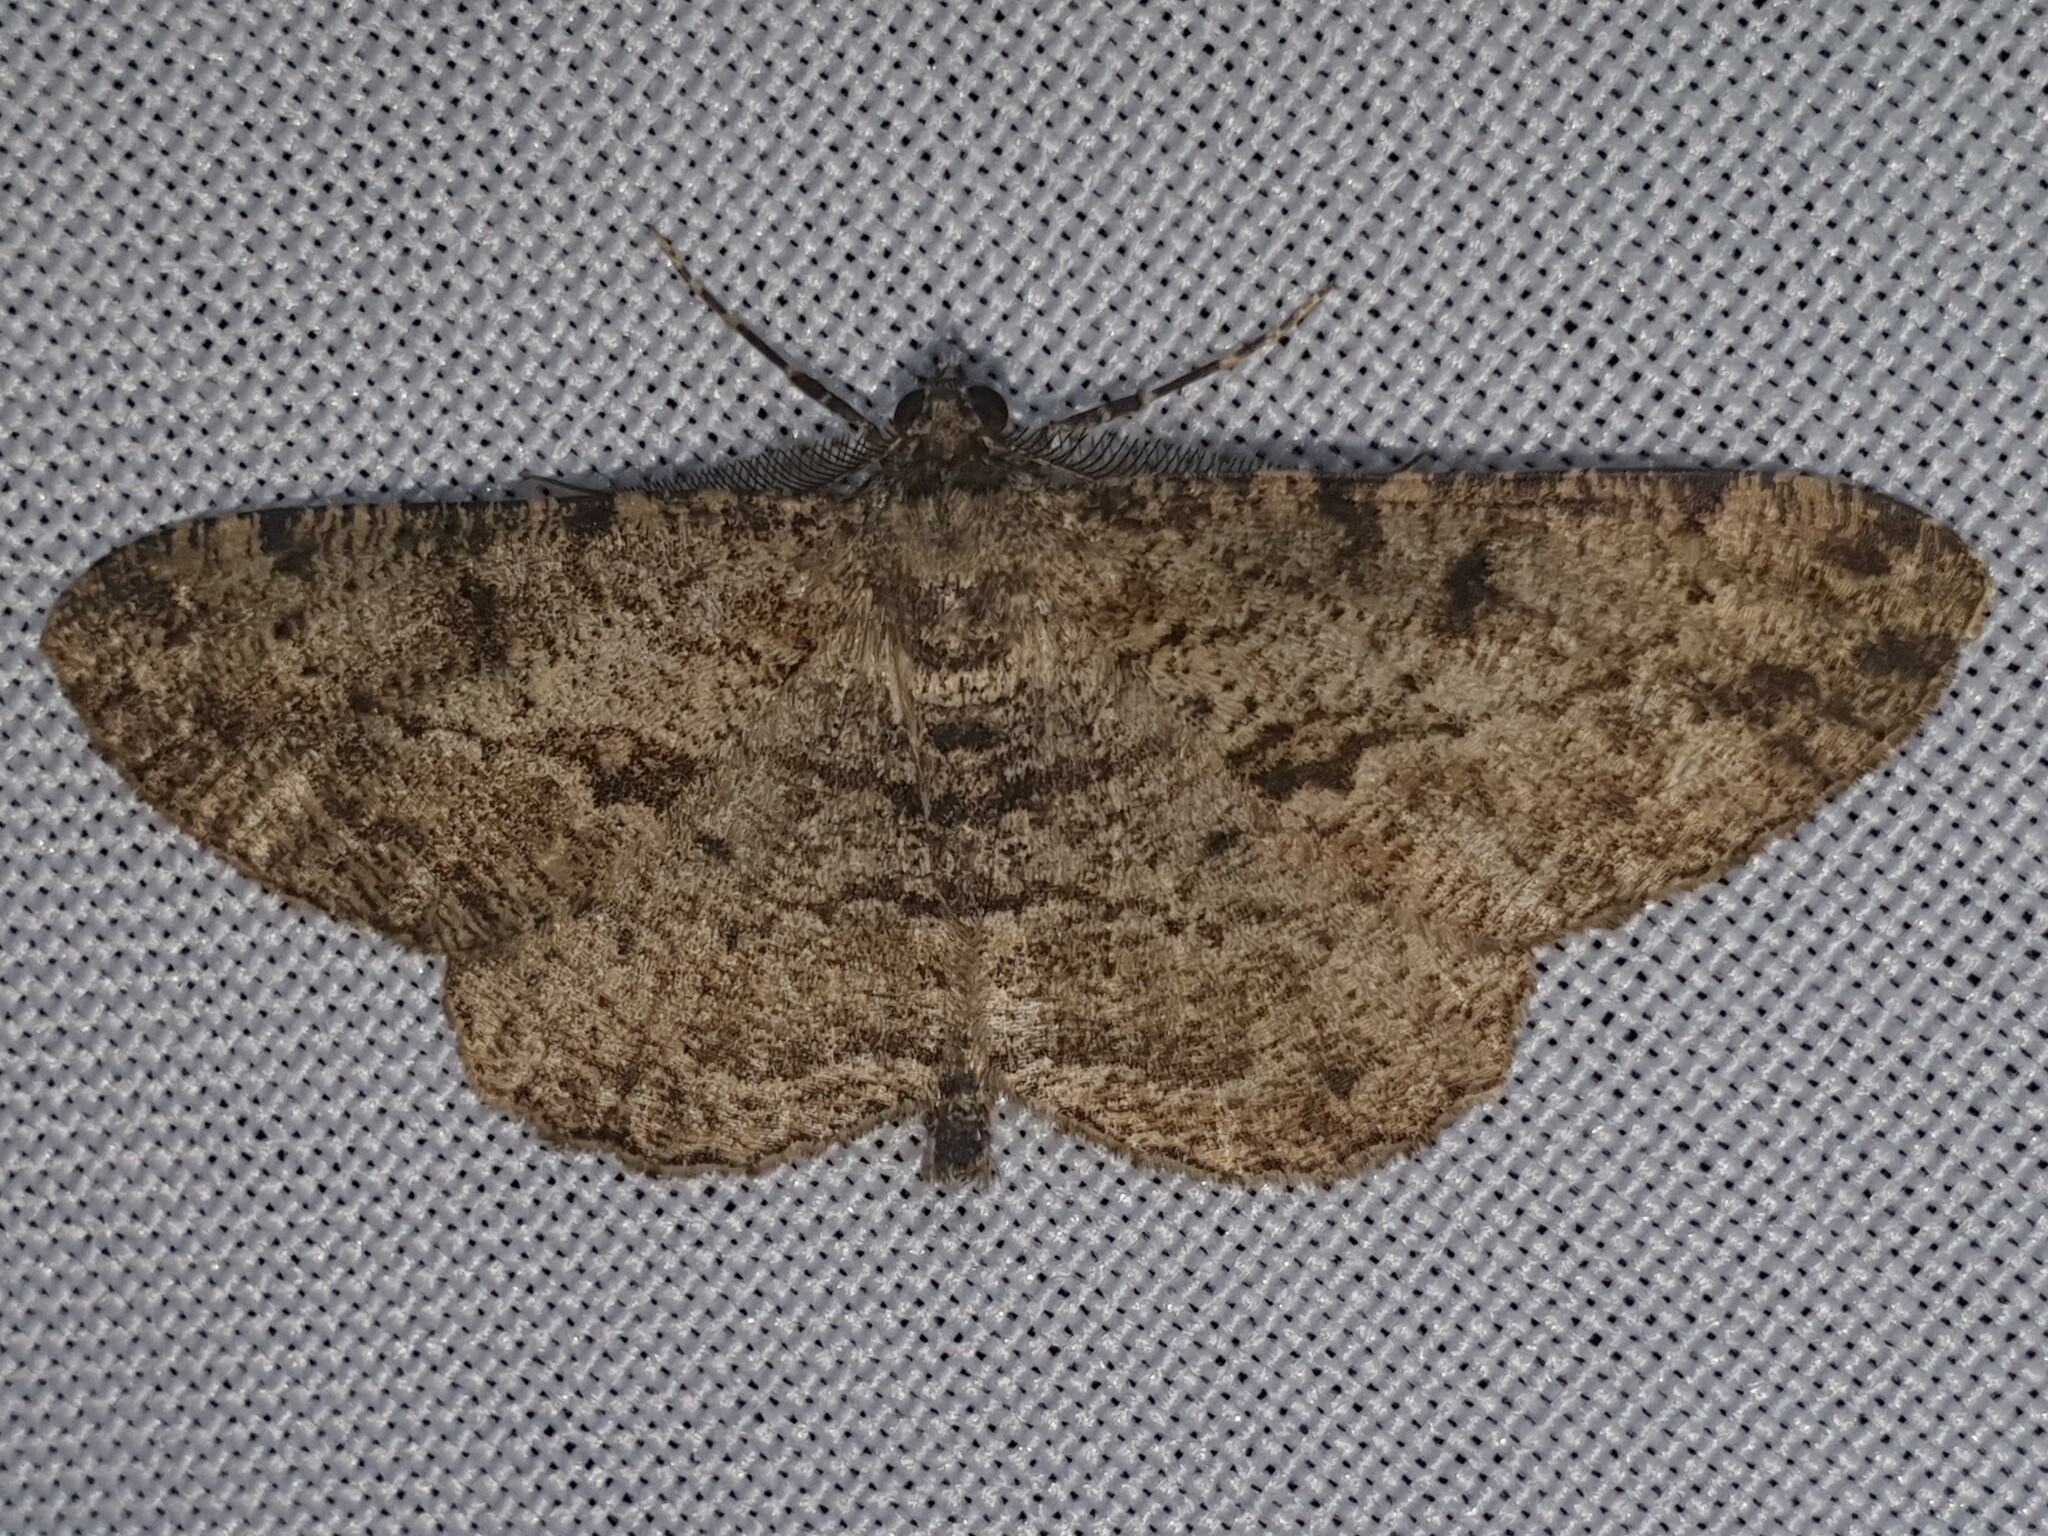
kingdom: Animalia
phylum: Arthropoda
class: Insecta
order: Lepidoptera
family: Geometridae
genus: Peribatodes
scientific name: Peribatodes rhomboidaria
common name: Willow beauty
